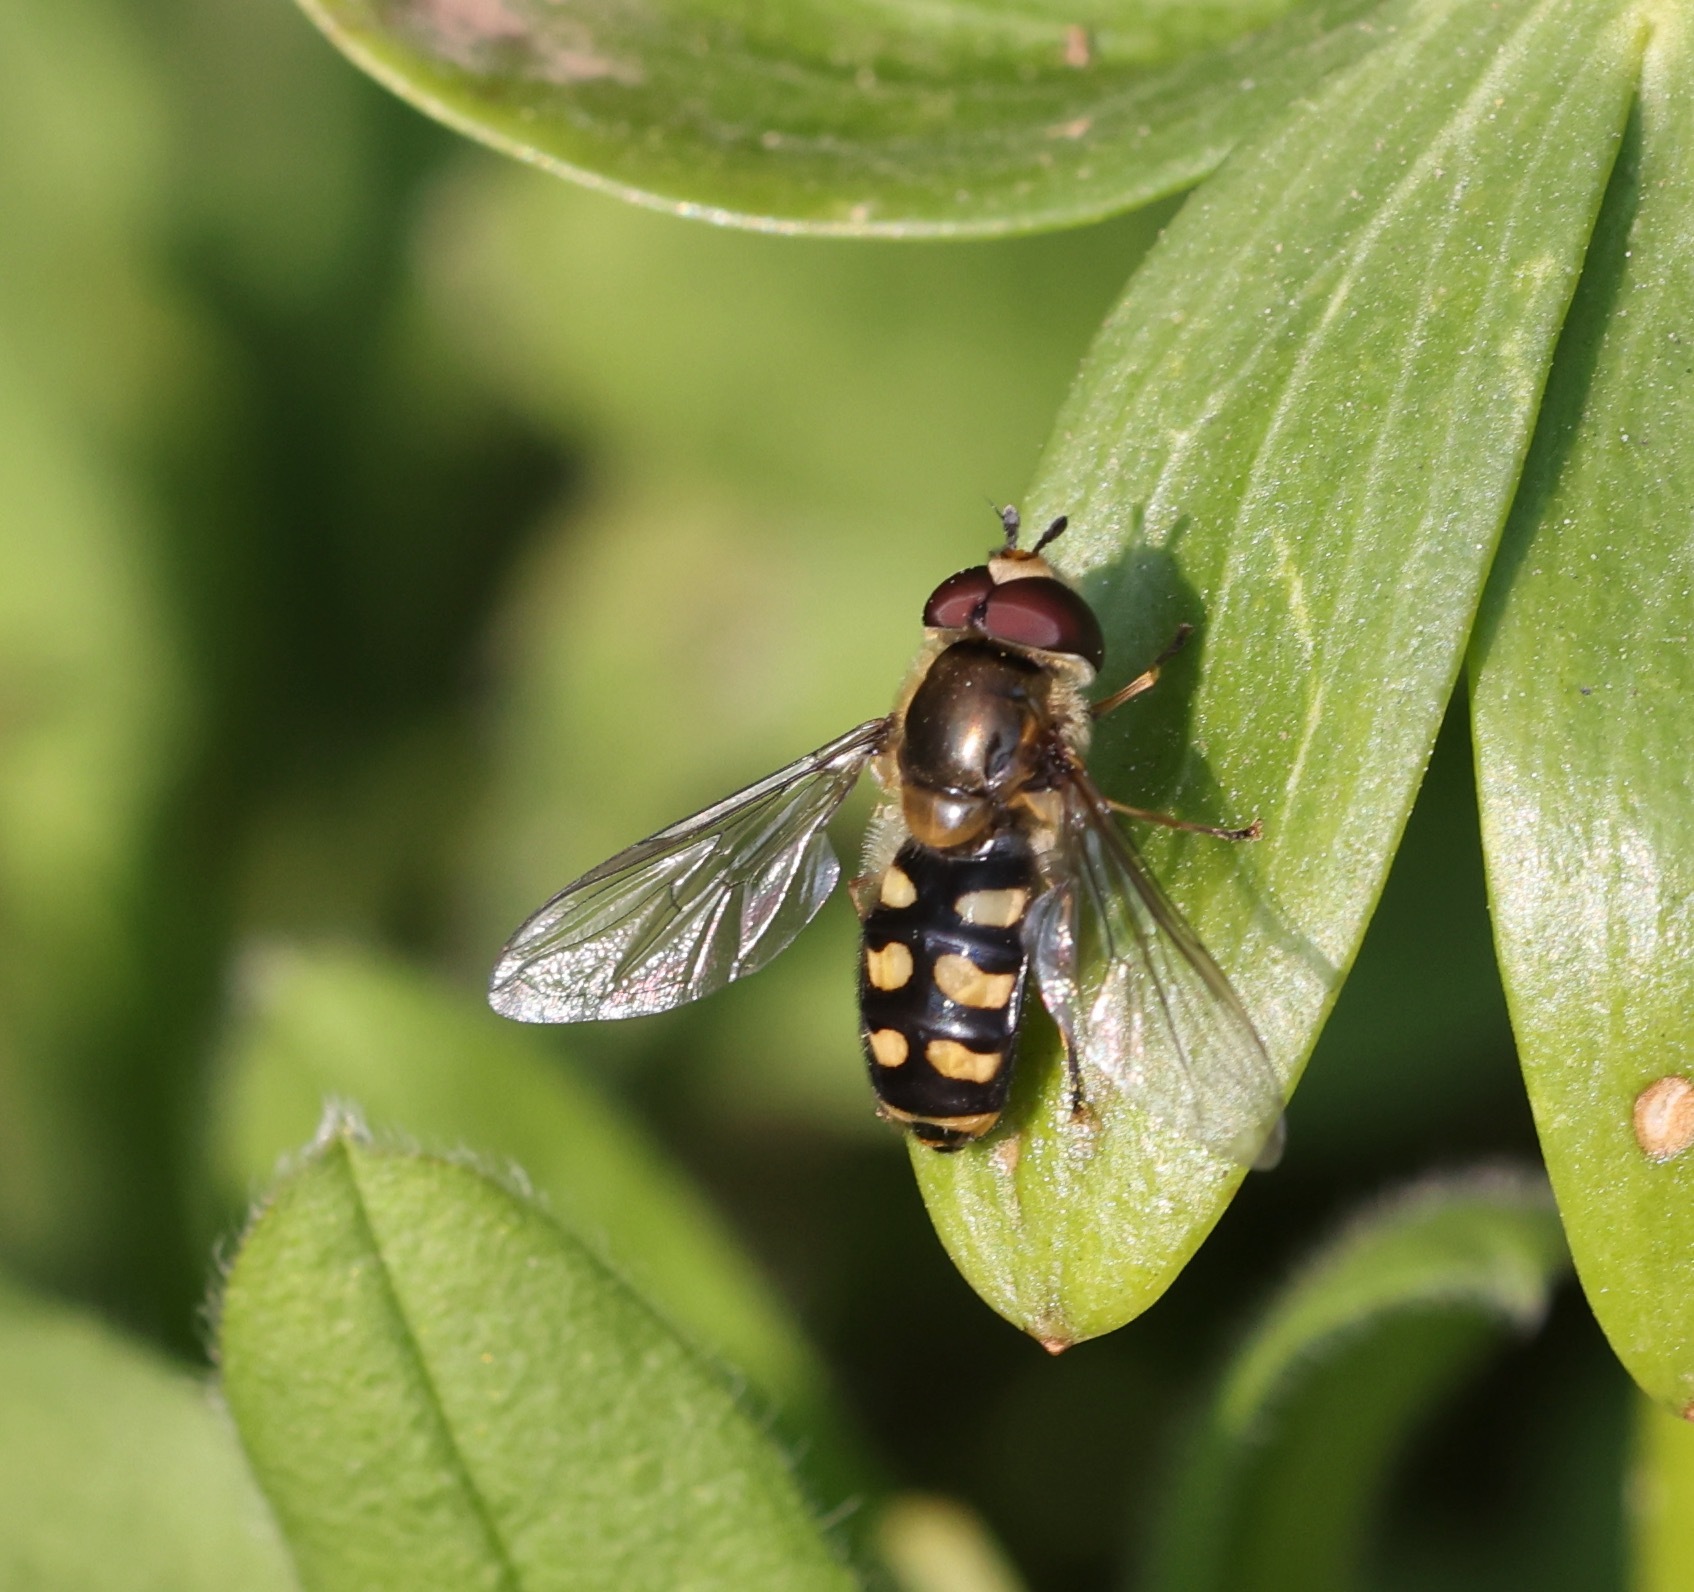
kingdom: Animalia
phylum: Arthropoda
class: Insecta
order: Diptera
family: Syrphidae
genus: Eupeodes
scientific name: Eupeodes
